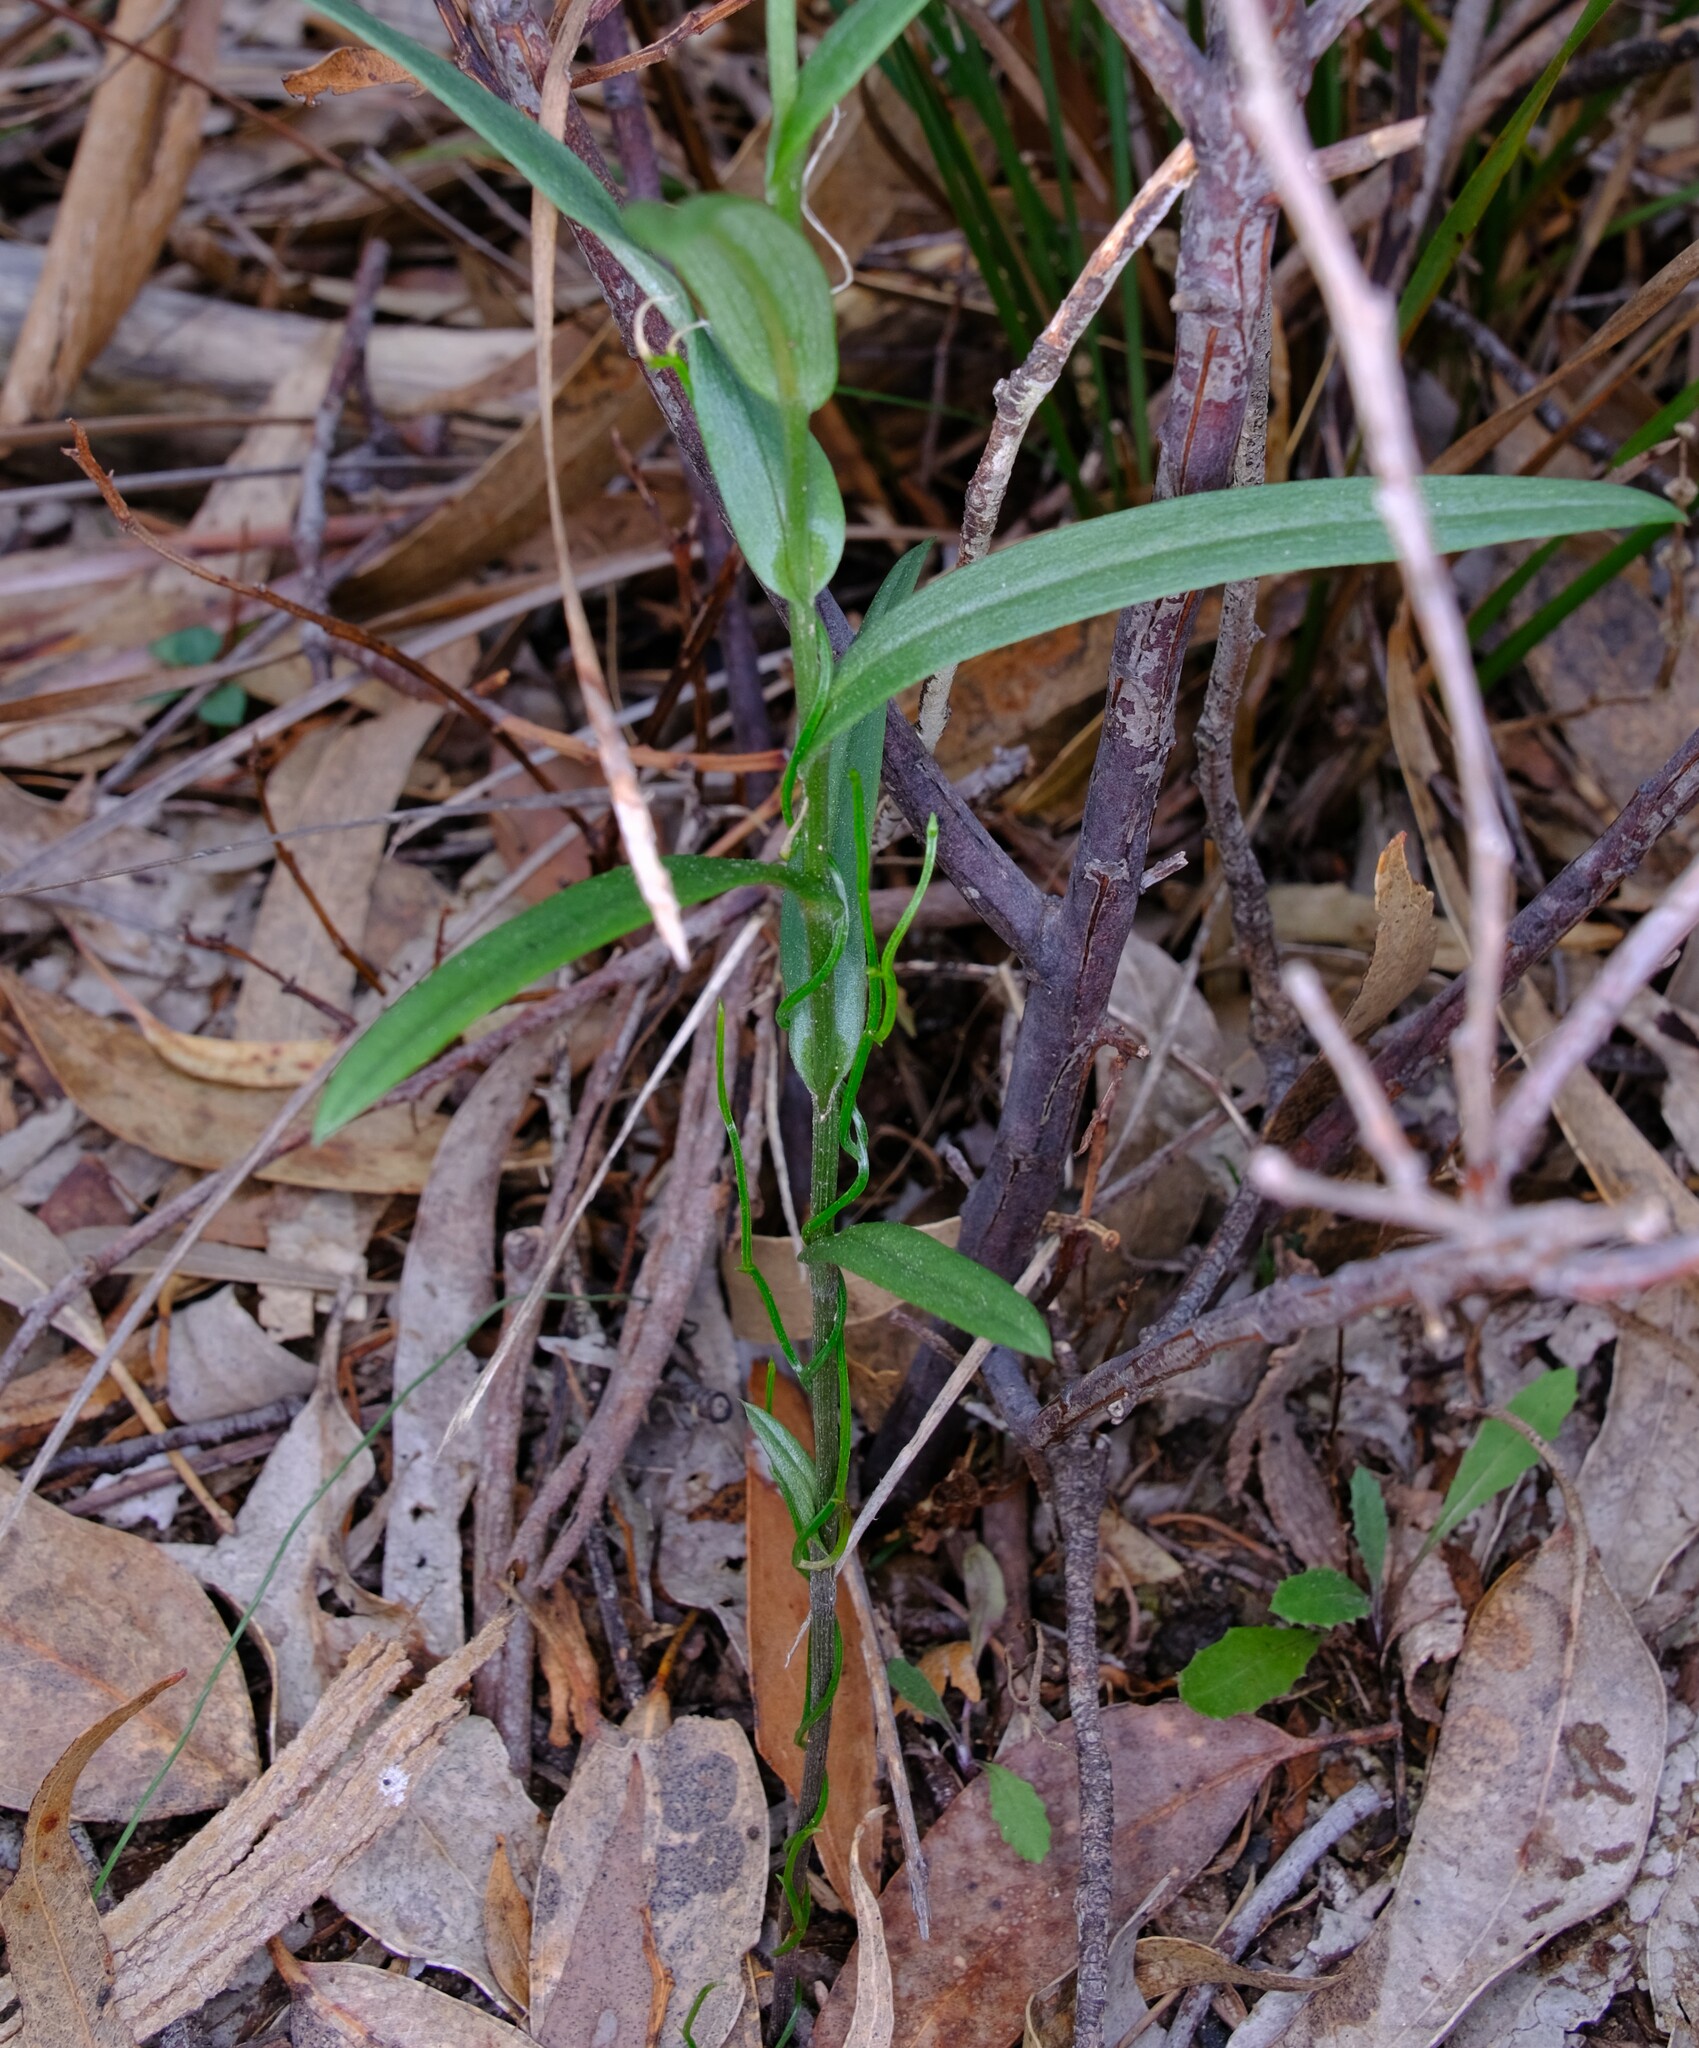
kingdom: Plantae
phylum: Tracheophyta
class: Liliopsida
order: Asparagales
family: Orchidaceae
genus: Pterostylis
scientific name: Pterostylis smaragdyna
